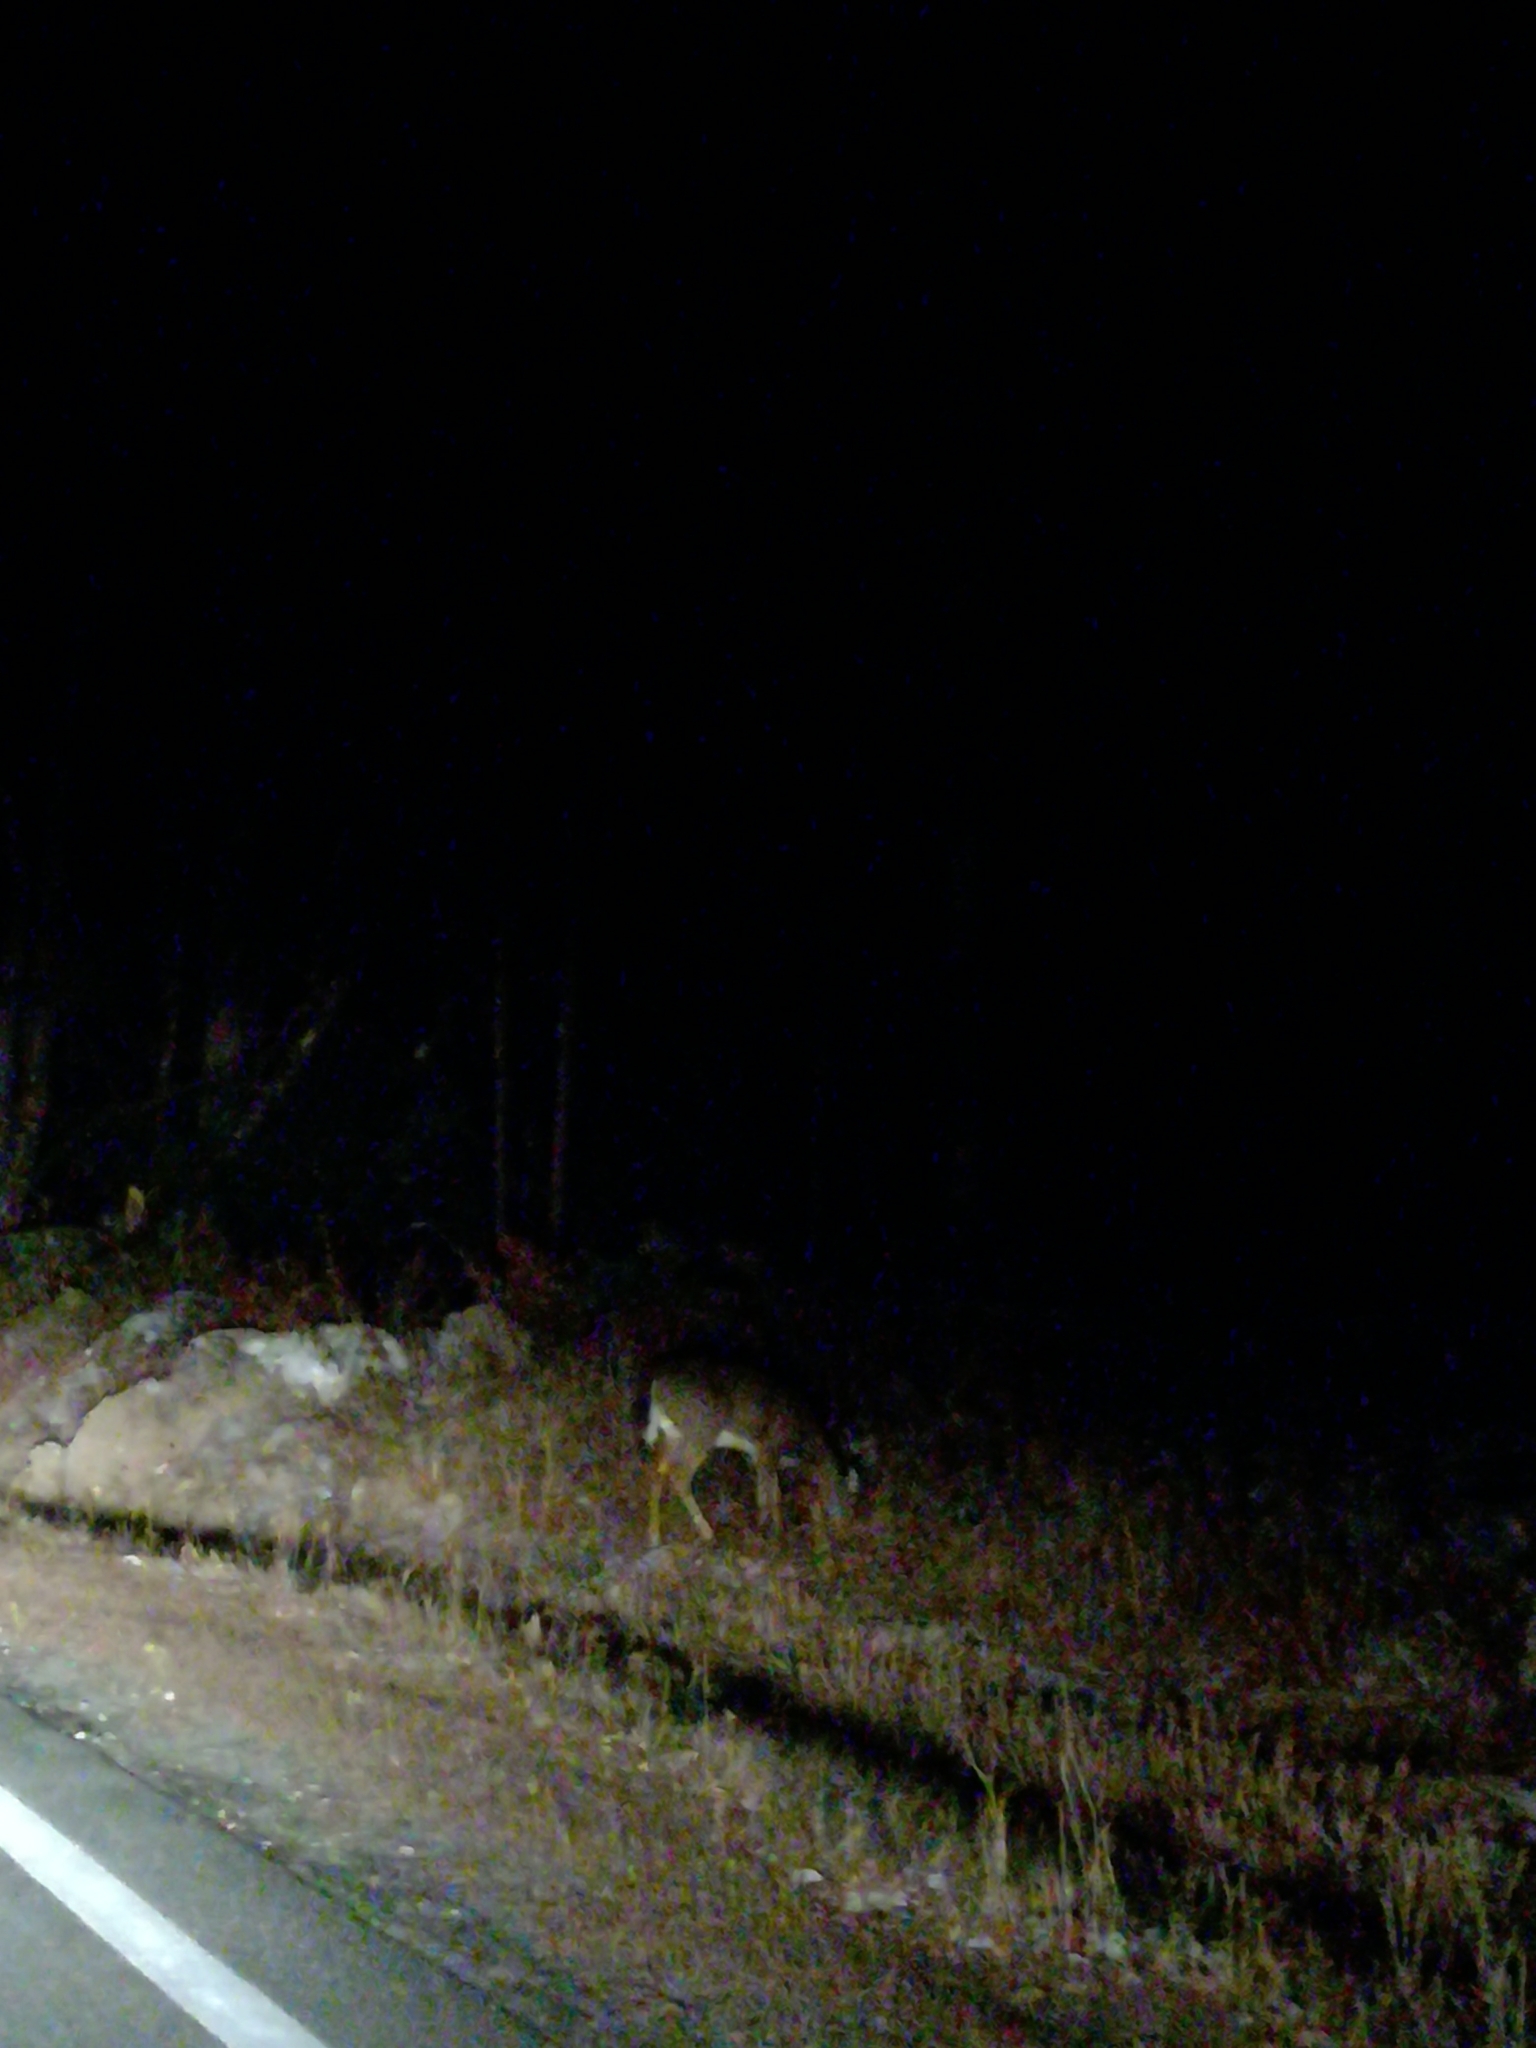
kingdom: Animalia
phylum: Chordata
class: Mammalia
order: Artiodactyla
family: Cervidae
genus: Odocoileus
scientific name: Odocoileus virginianus
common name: White-tailed deer
